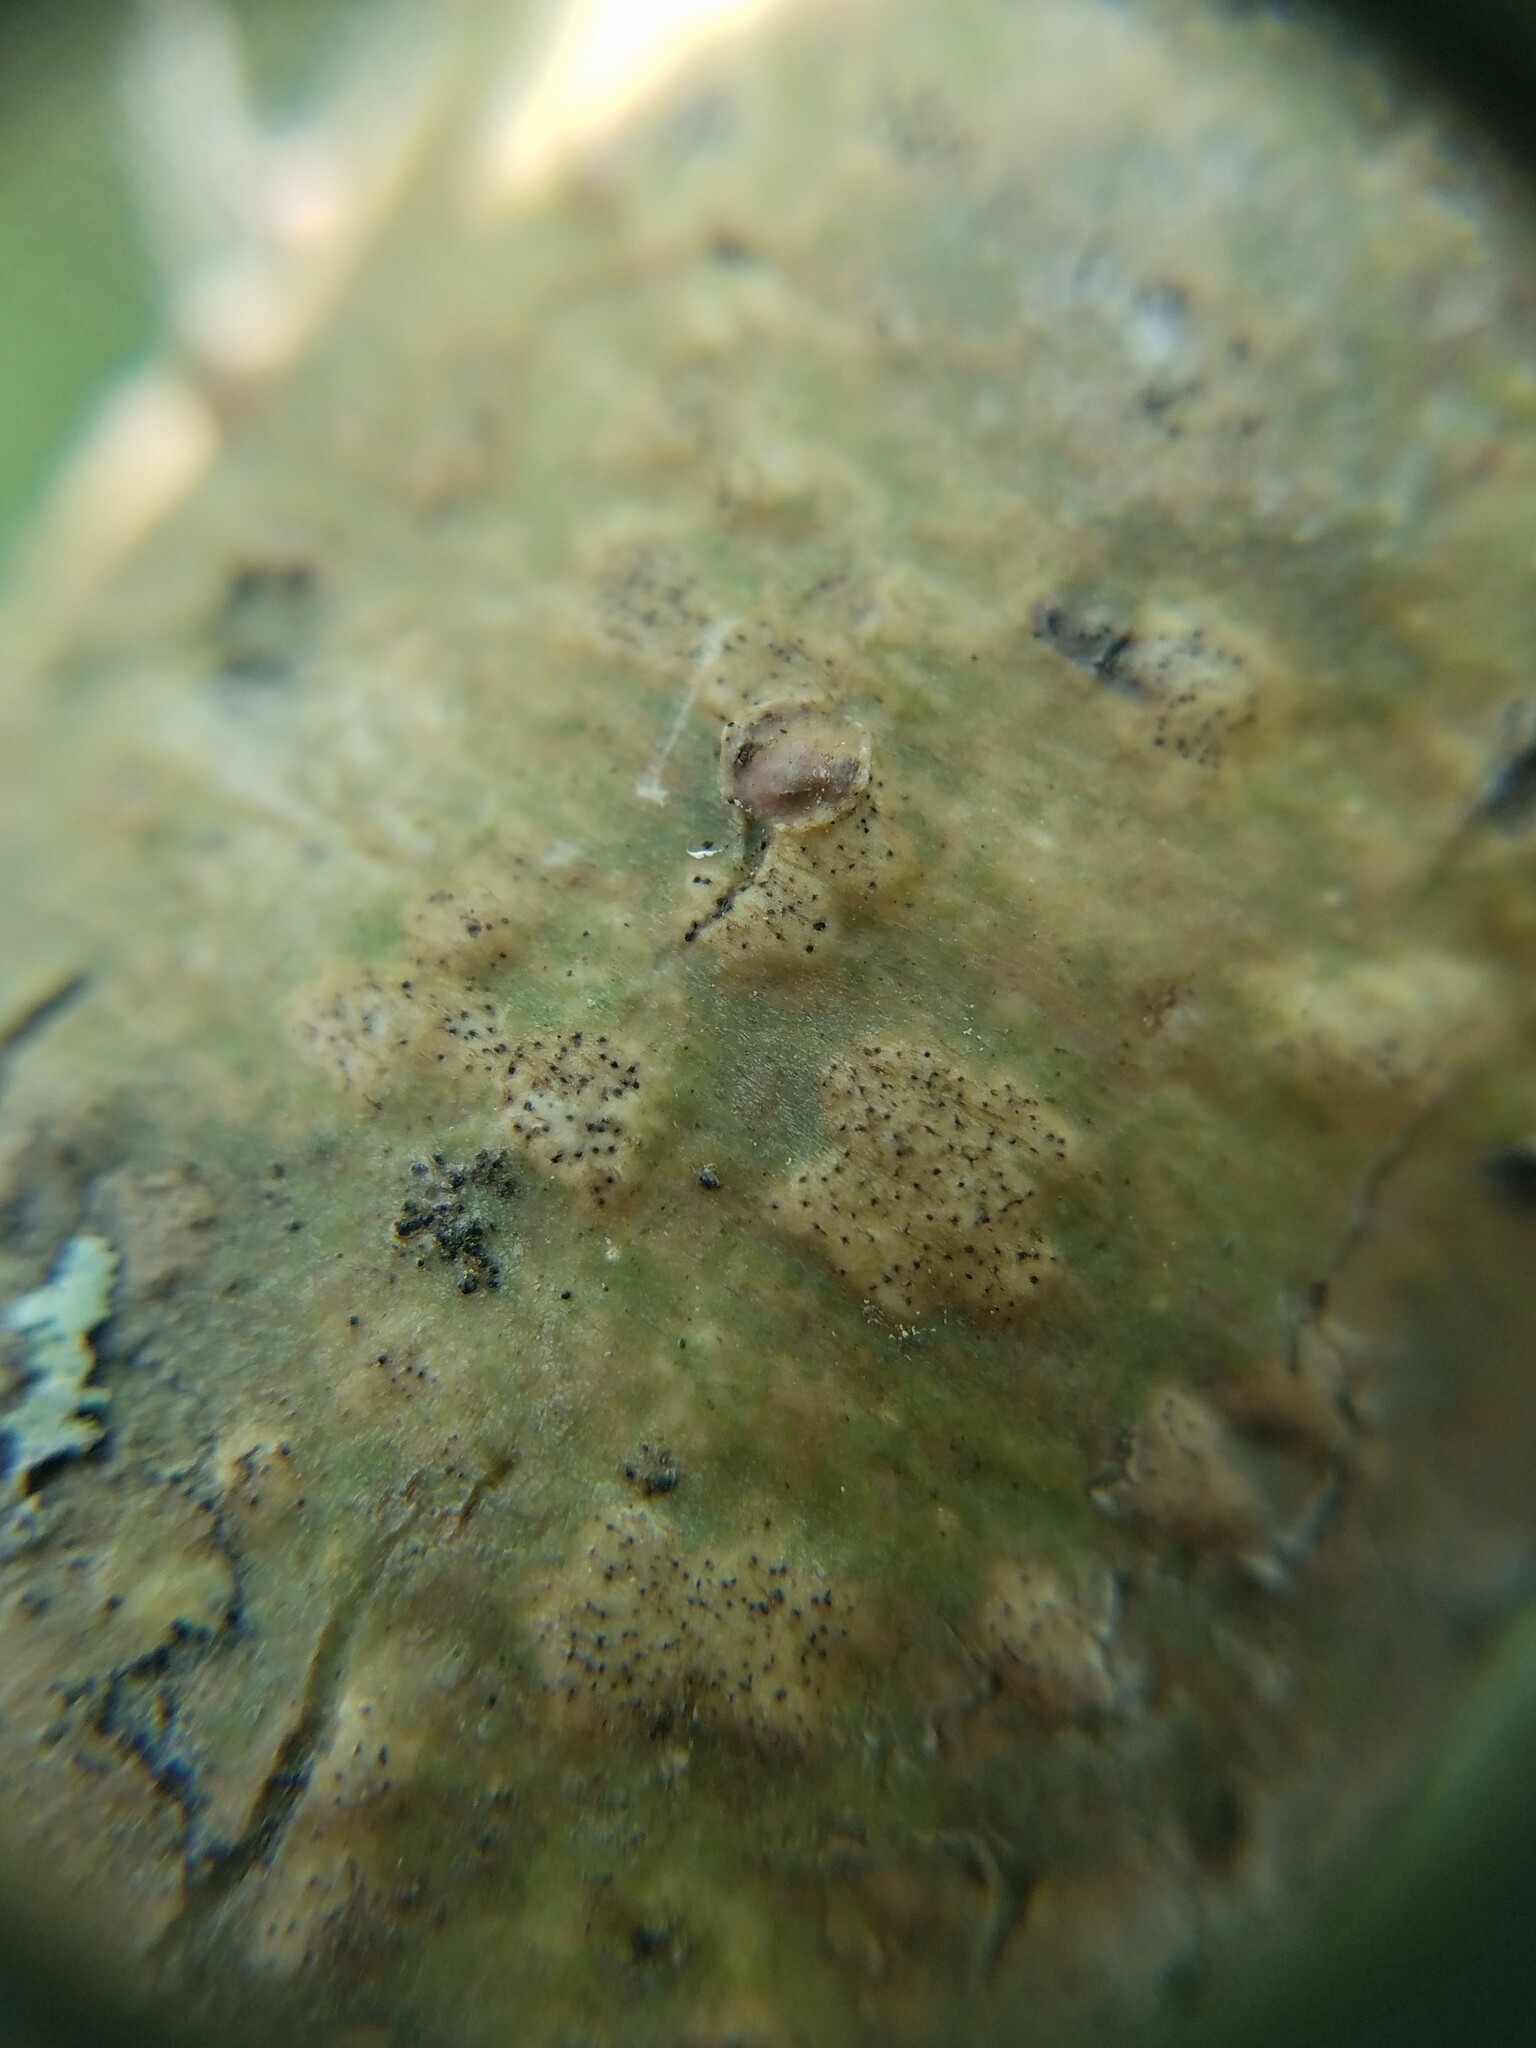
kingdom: Fungi
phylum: Ascomycota
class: Dothideomycetes
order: Trypetheliales
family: Trypetheliaceae
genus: Viridothelium
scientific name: Viridothelium virens
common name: Speckled blister lichen
